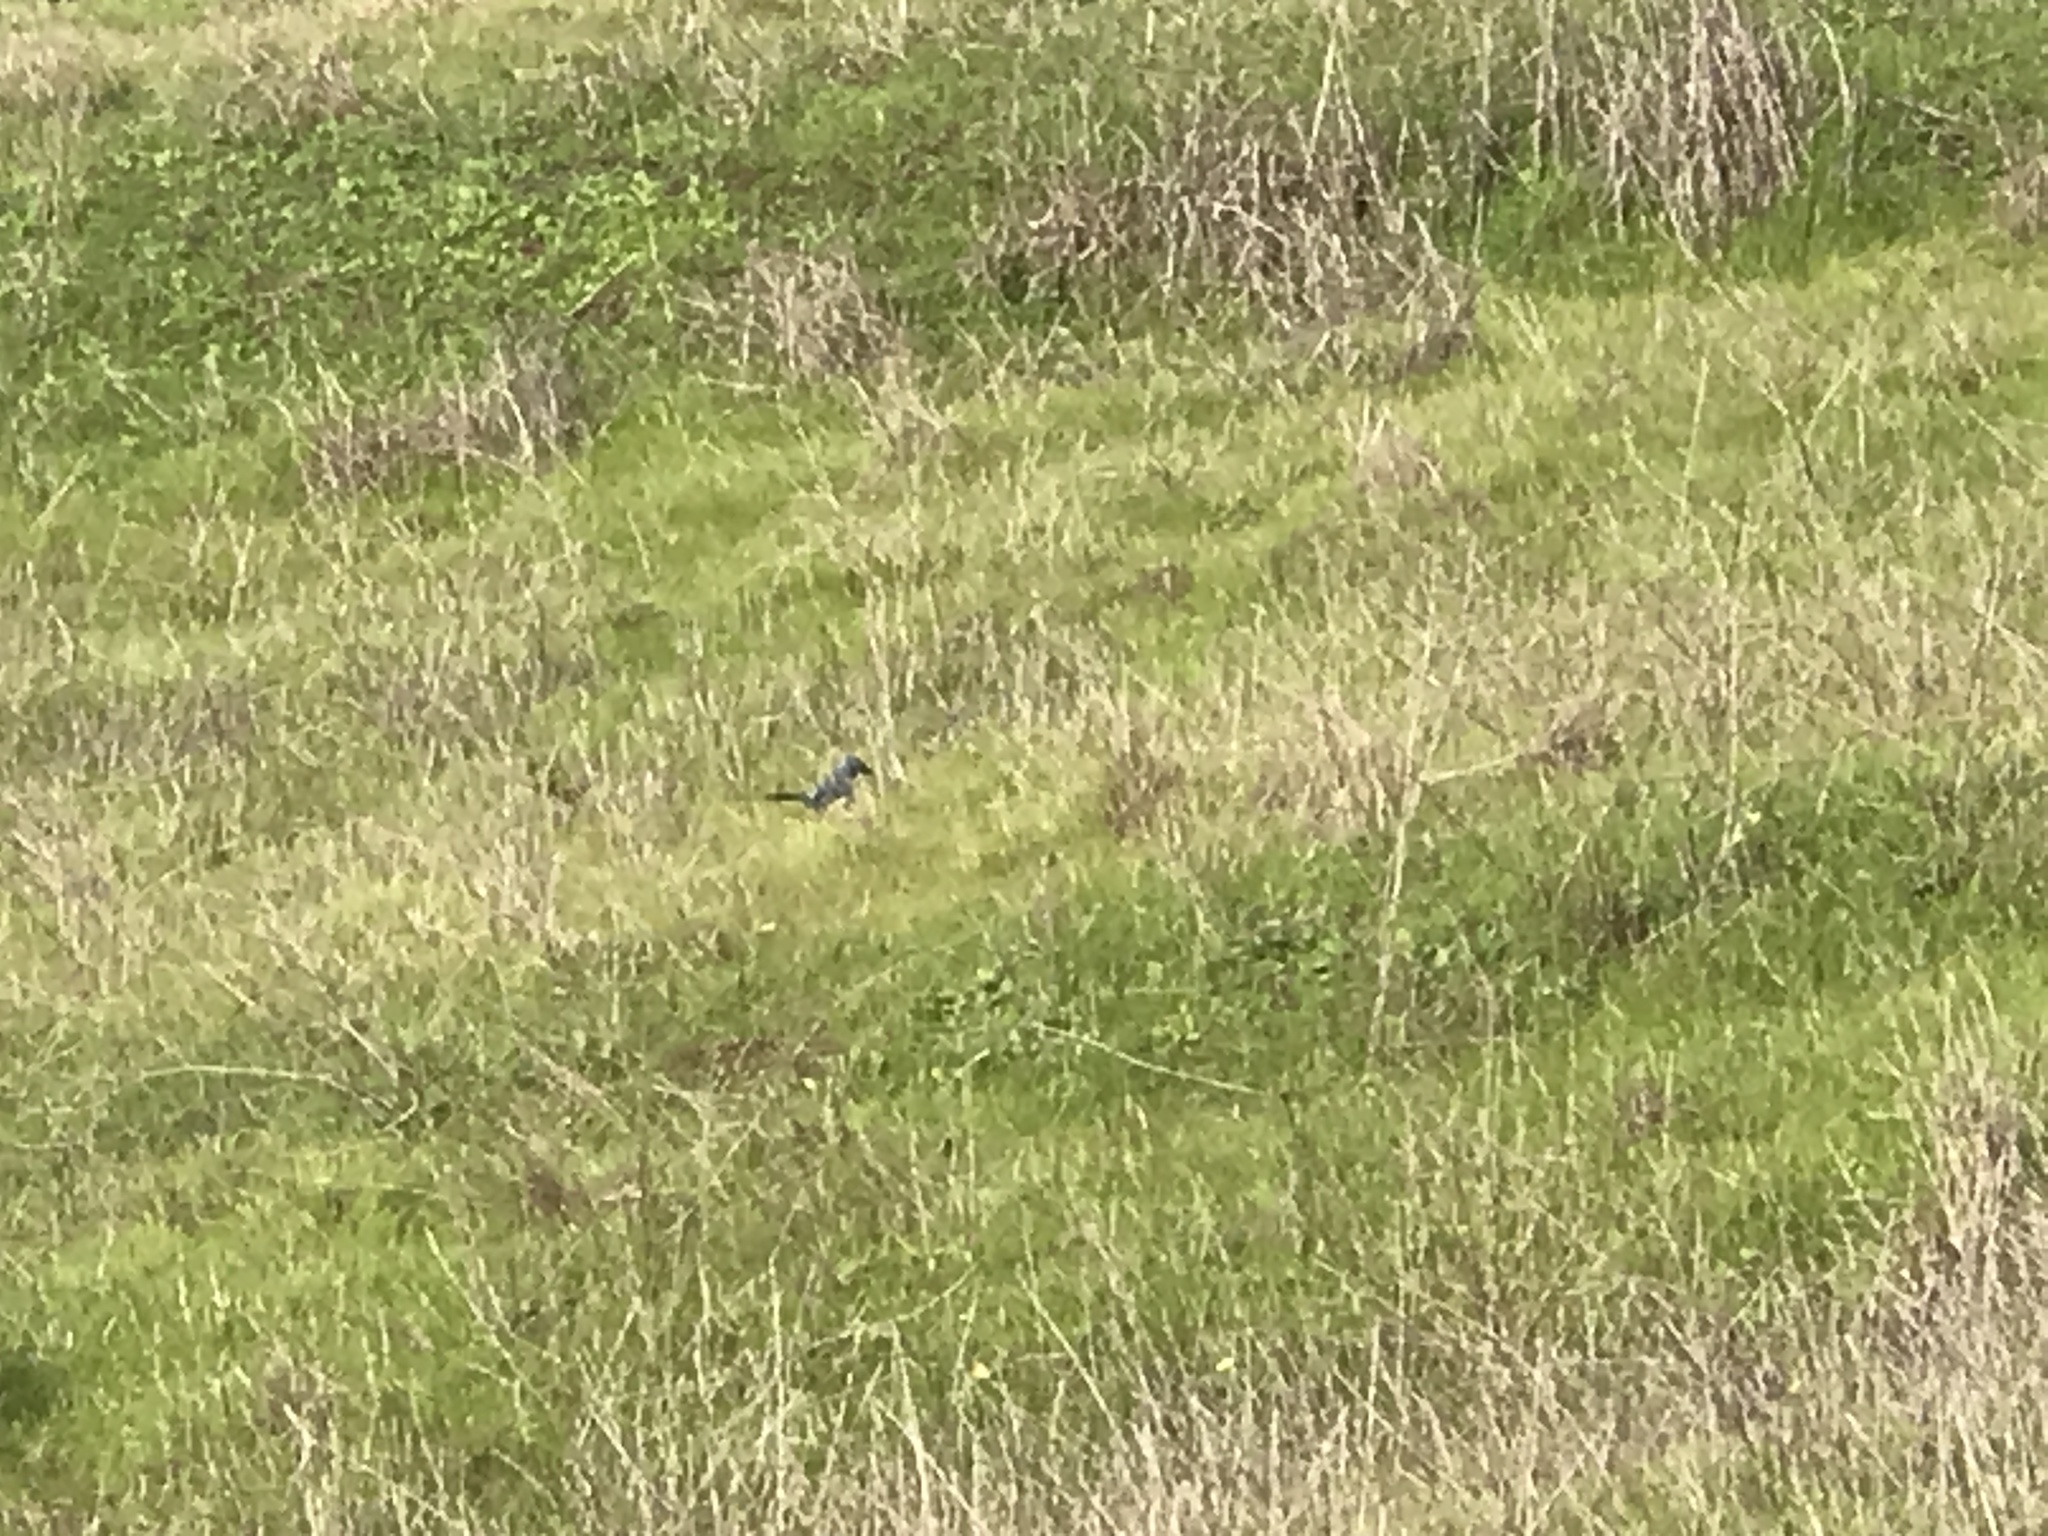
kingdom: Animalia
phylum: Chordata
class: Aves
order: Passeriformes
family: Corvidae
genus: Aphelocoma
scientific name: Aphelocoma californica
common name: California scrub-jay
